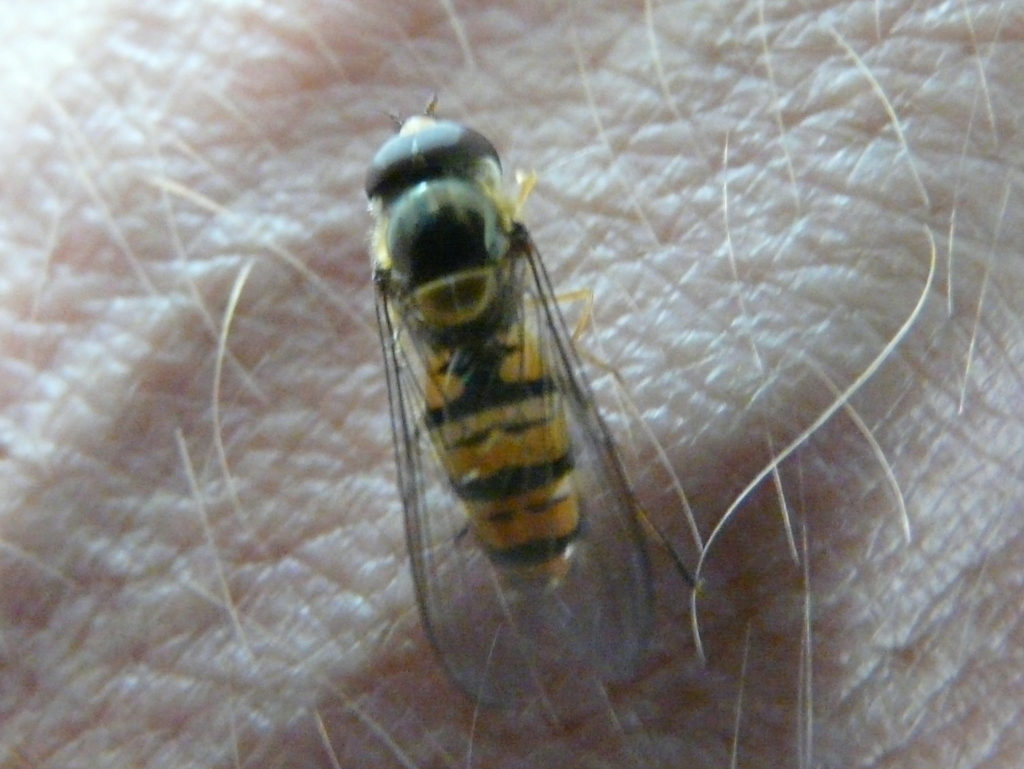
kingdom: Animalia
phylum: Arthropoda
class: Insecta
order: Diptera
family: Syrphidae
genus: Episyrphus
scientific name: Episyrphus balteatus
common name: Marmalade hoverfly
